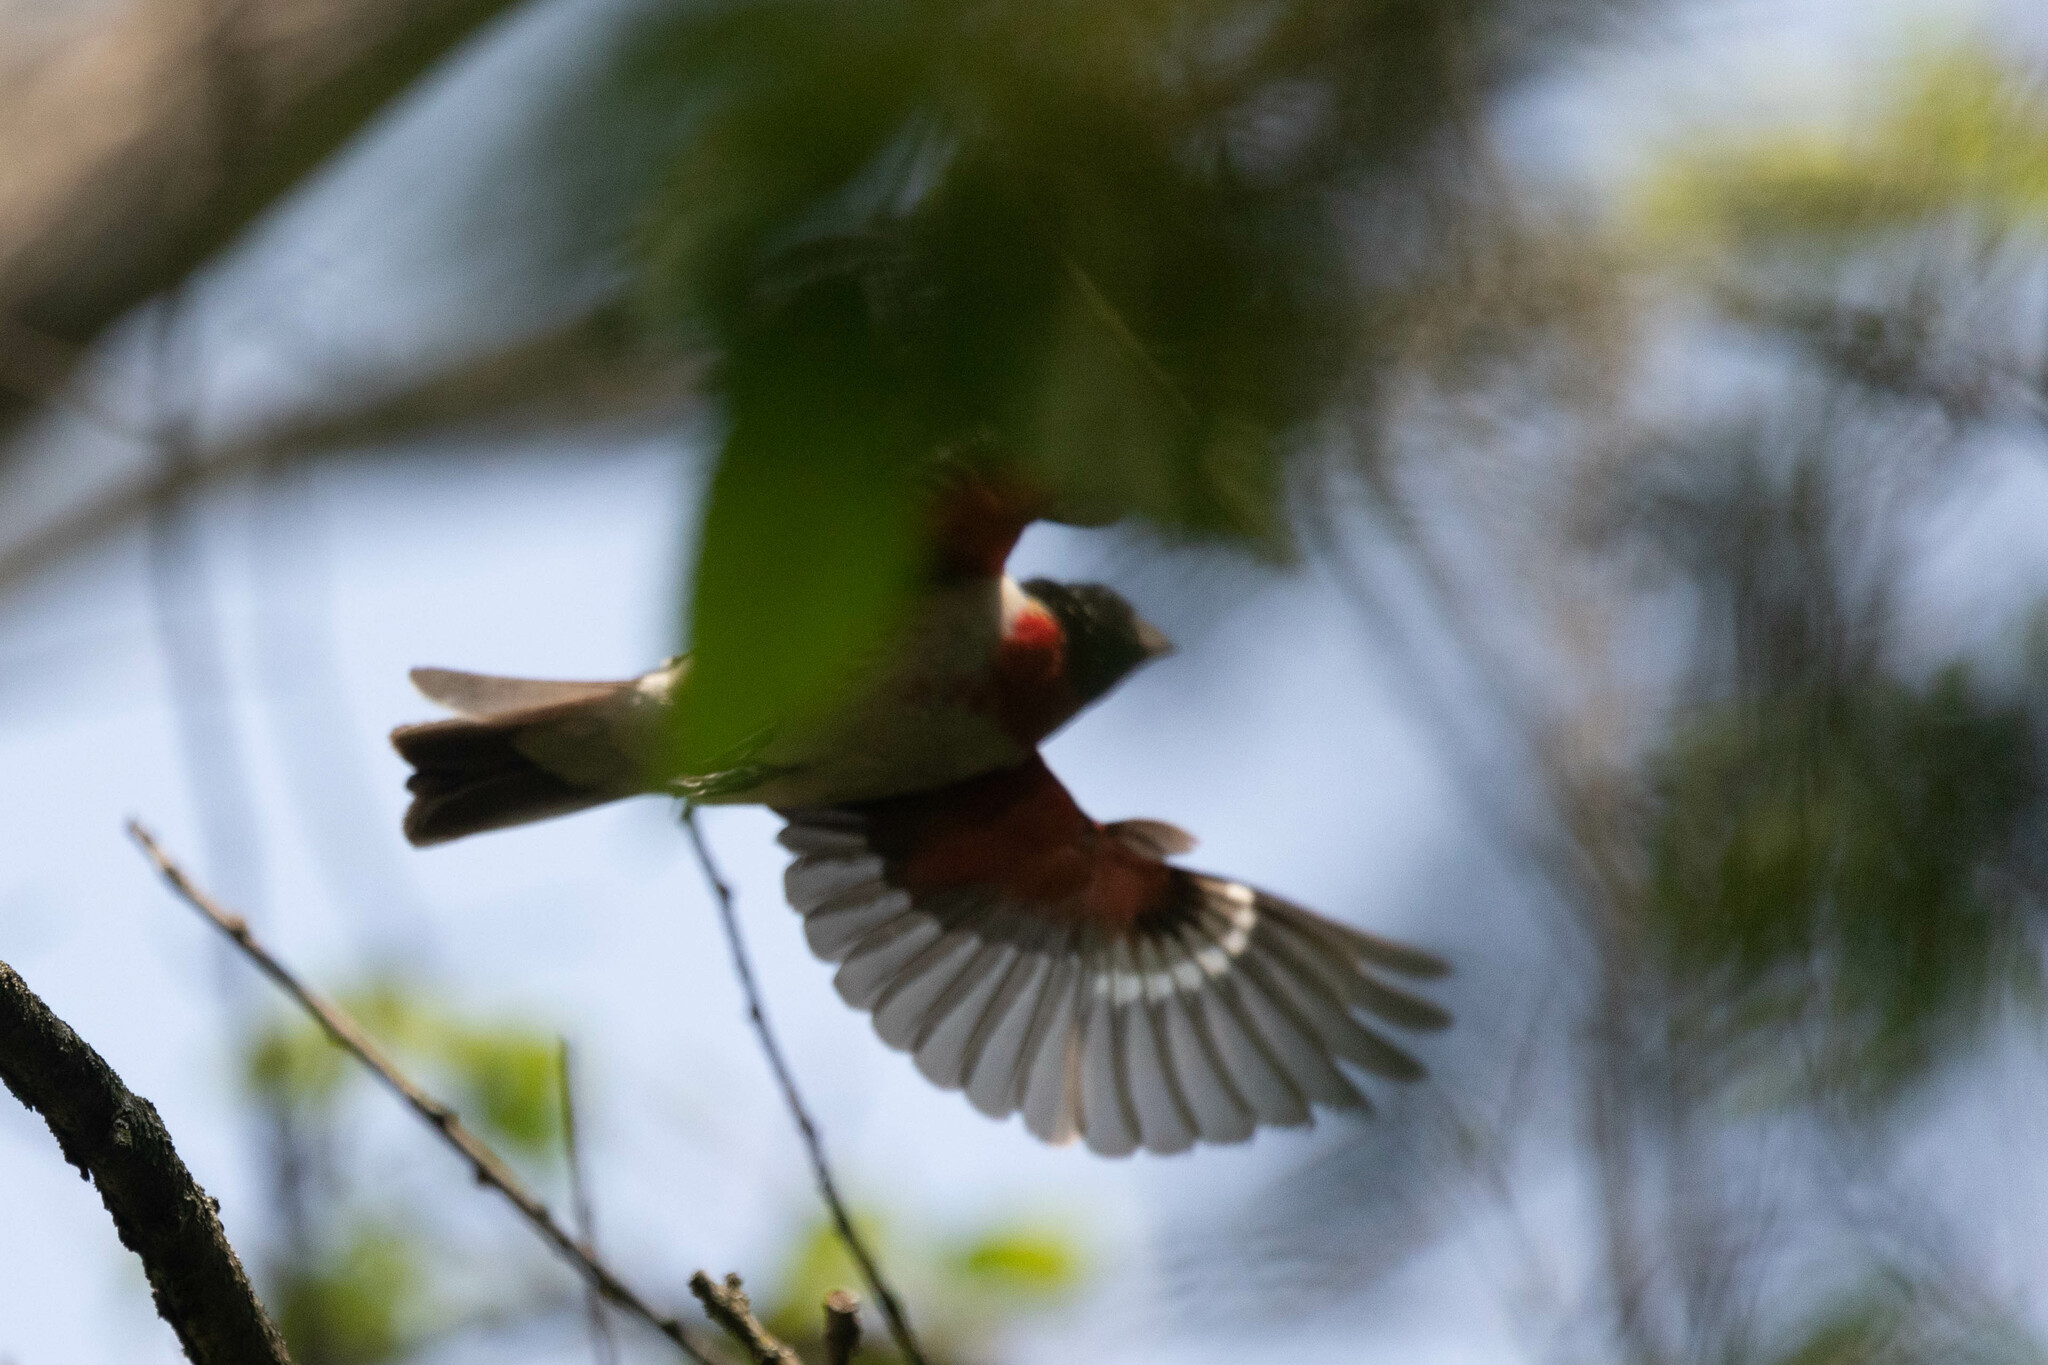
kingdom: Animalia
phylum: Chordata
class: Aves
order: Passeriformes
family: Cardinalidae
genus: Pheucticus
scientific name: Pheucticus ludovicianus
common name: Rose-breasted grosbeak
